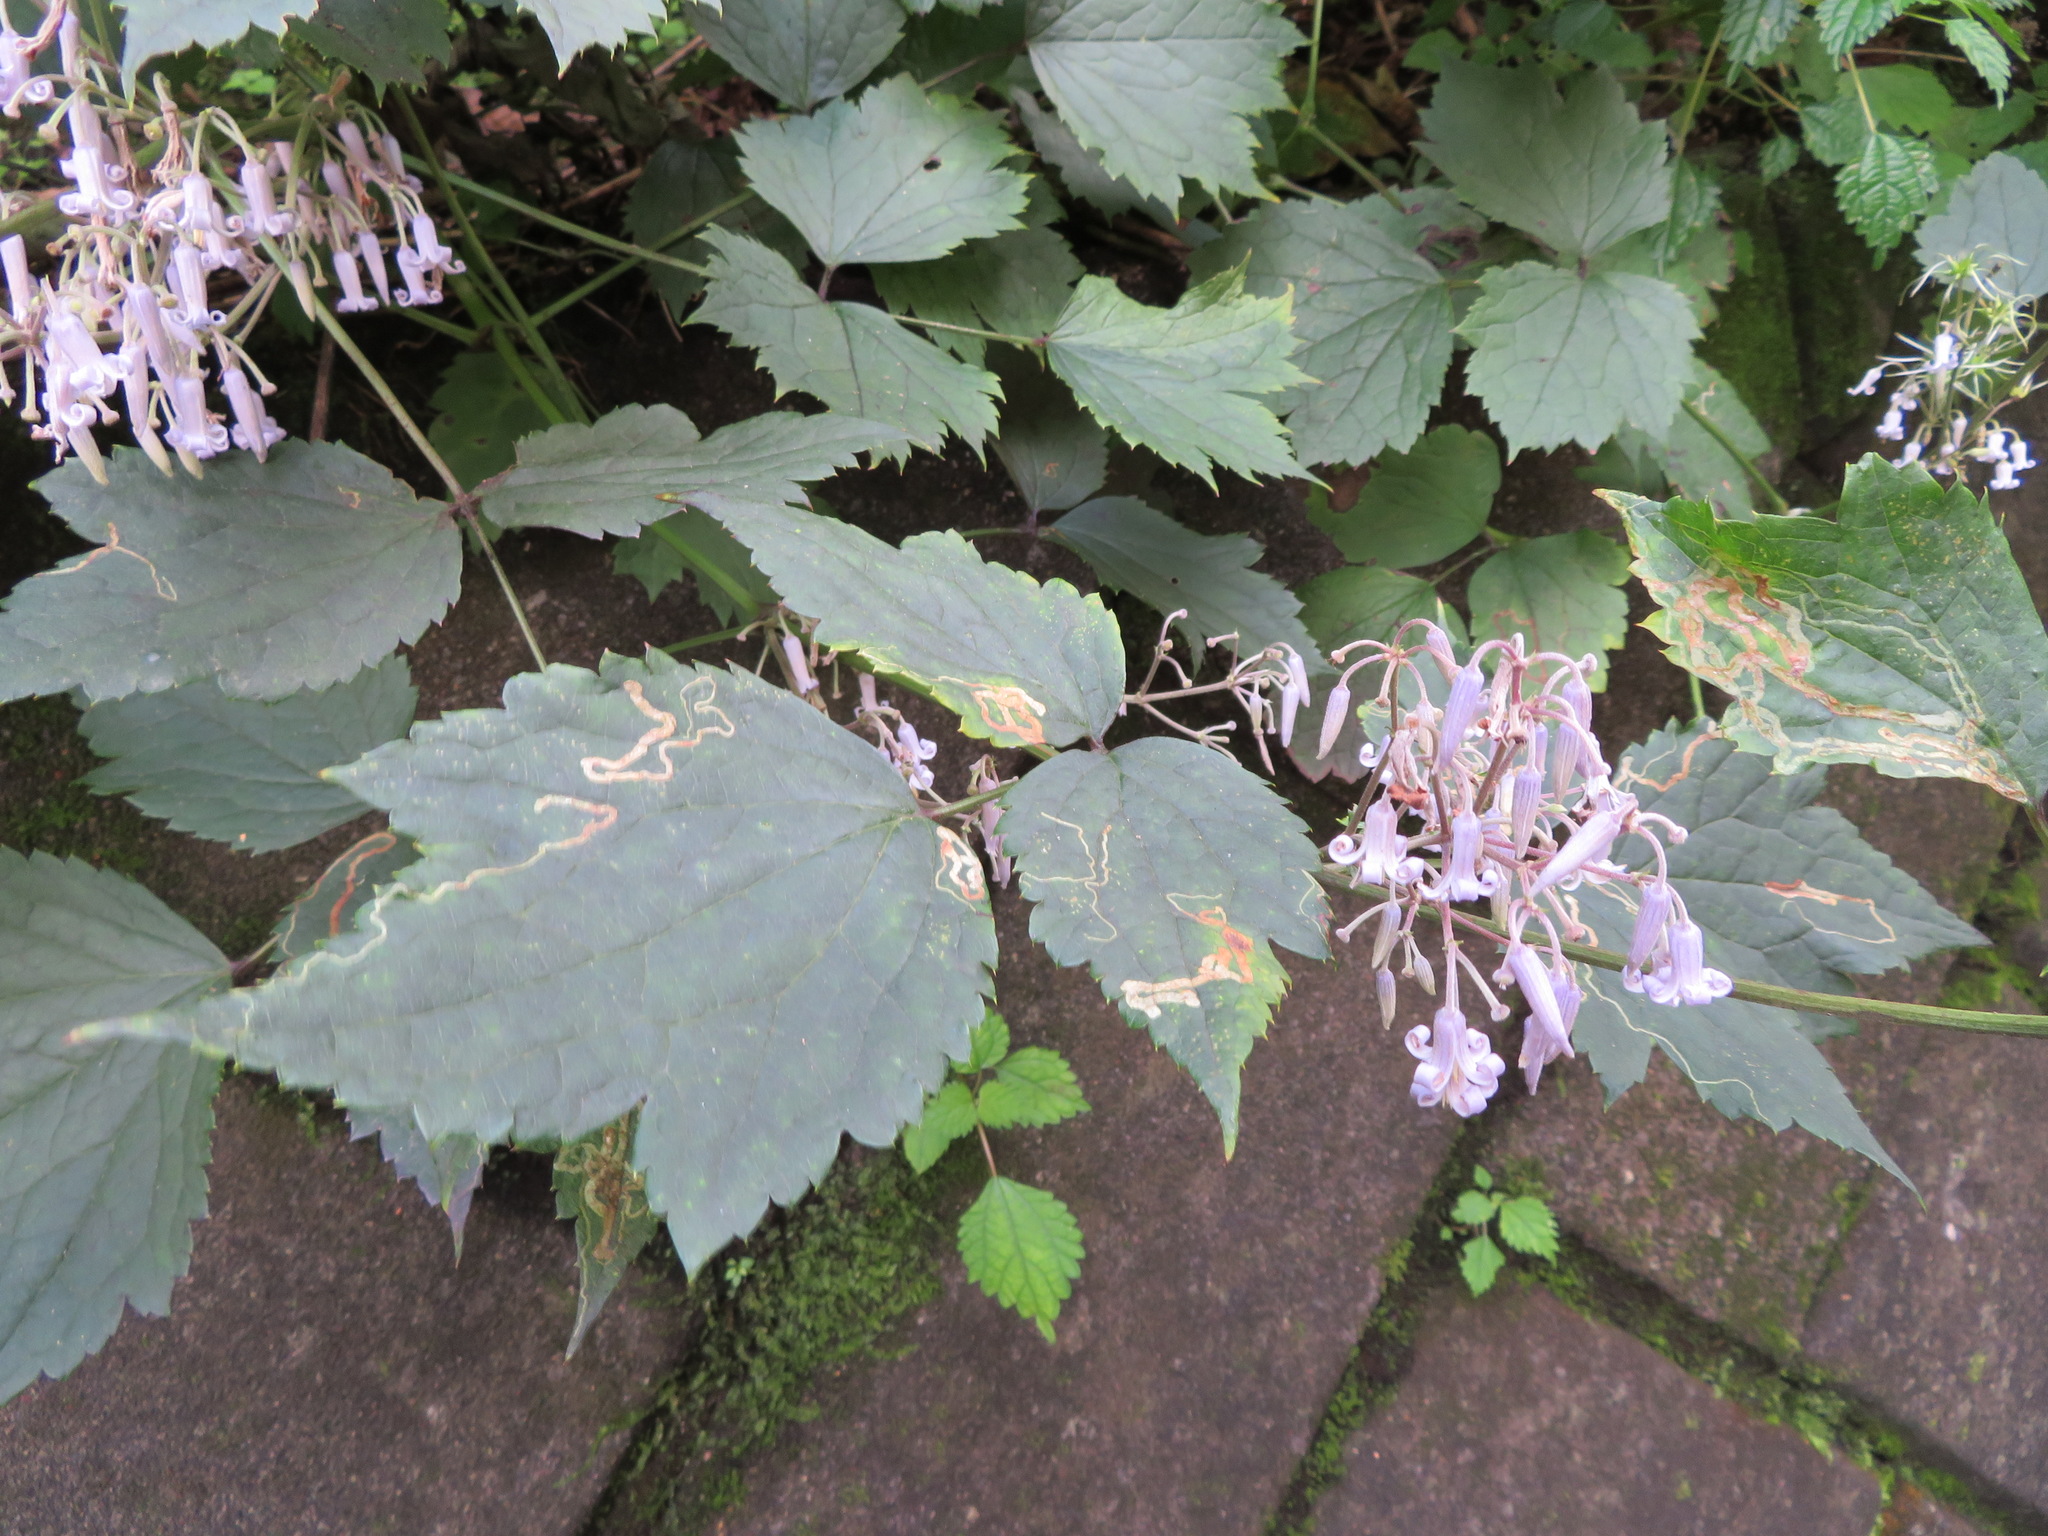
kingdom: Plantae
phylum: Tracheophyta
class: Magnoliopsida
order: Ranunculales
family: Ranunculaceae
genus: Clematis
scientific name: Clematis stans
